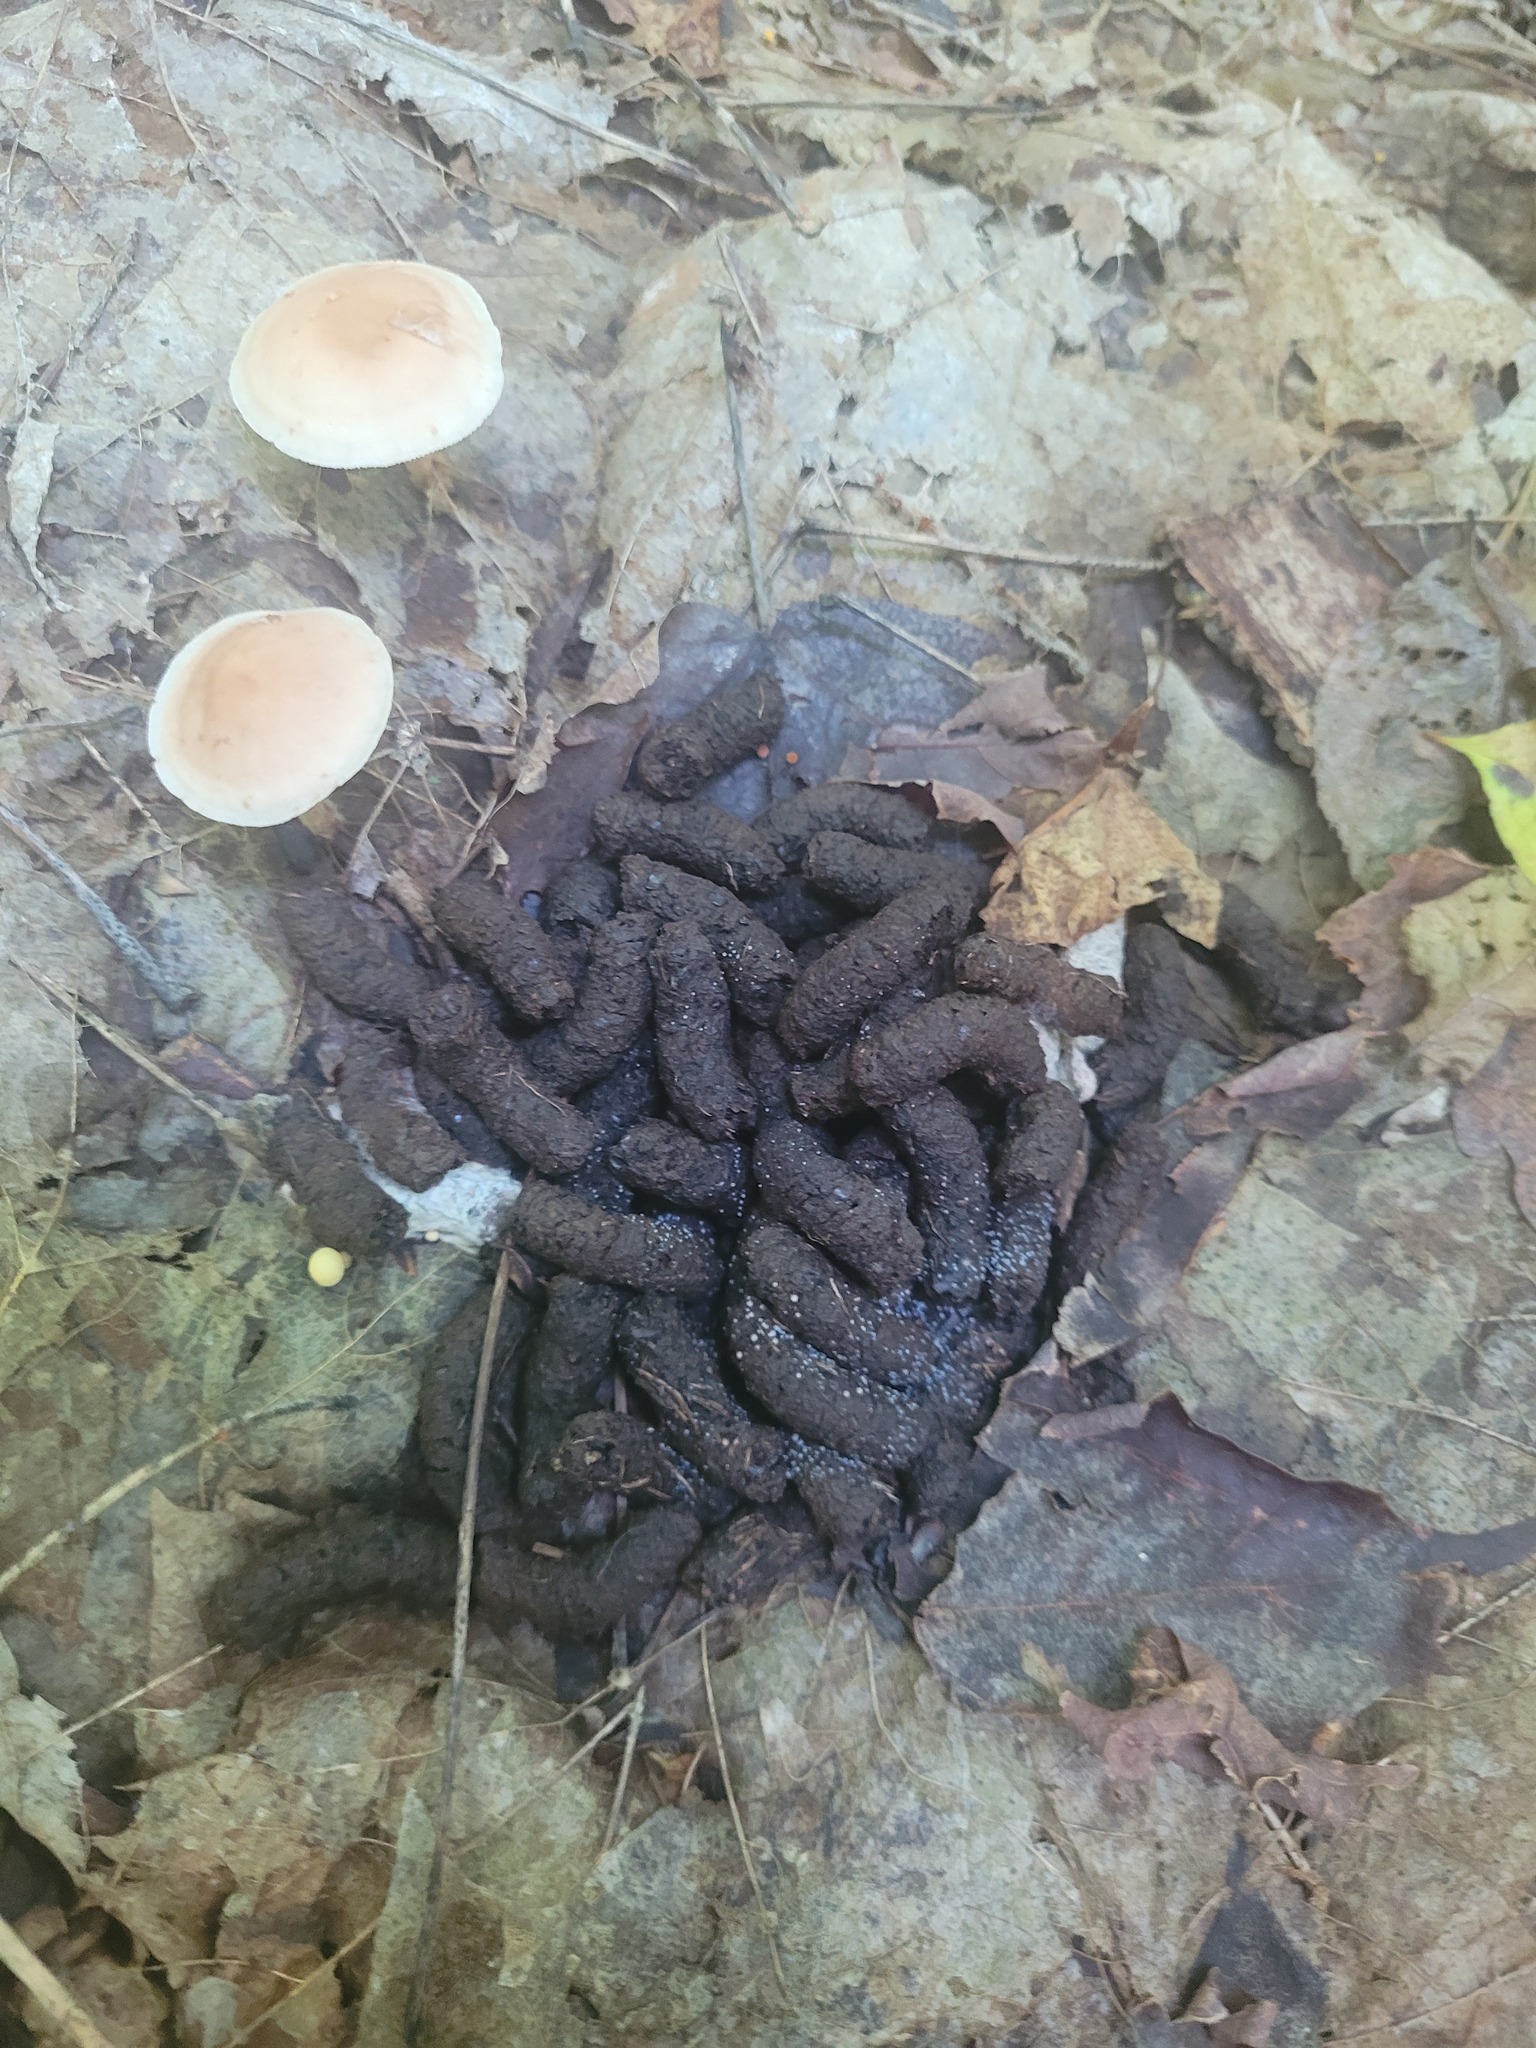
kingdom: Animalia
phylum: Chordata
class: Aves
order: Galliformes
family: Phasianidae
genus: Bonasa
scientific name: Bonasa umbellus
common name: Ruffed grouse
